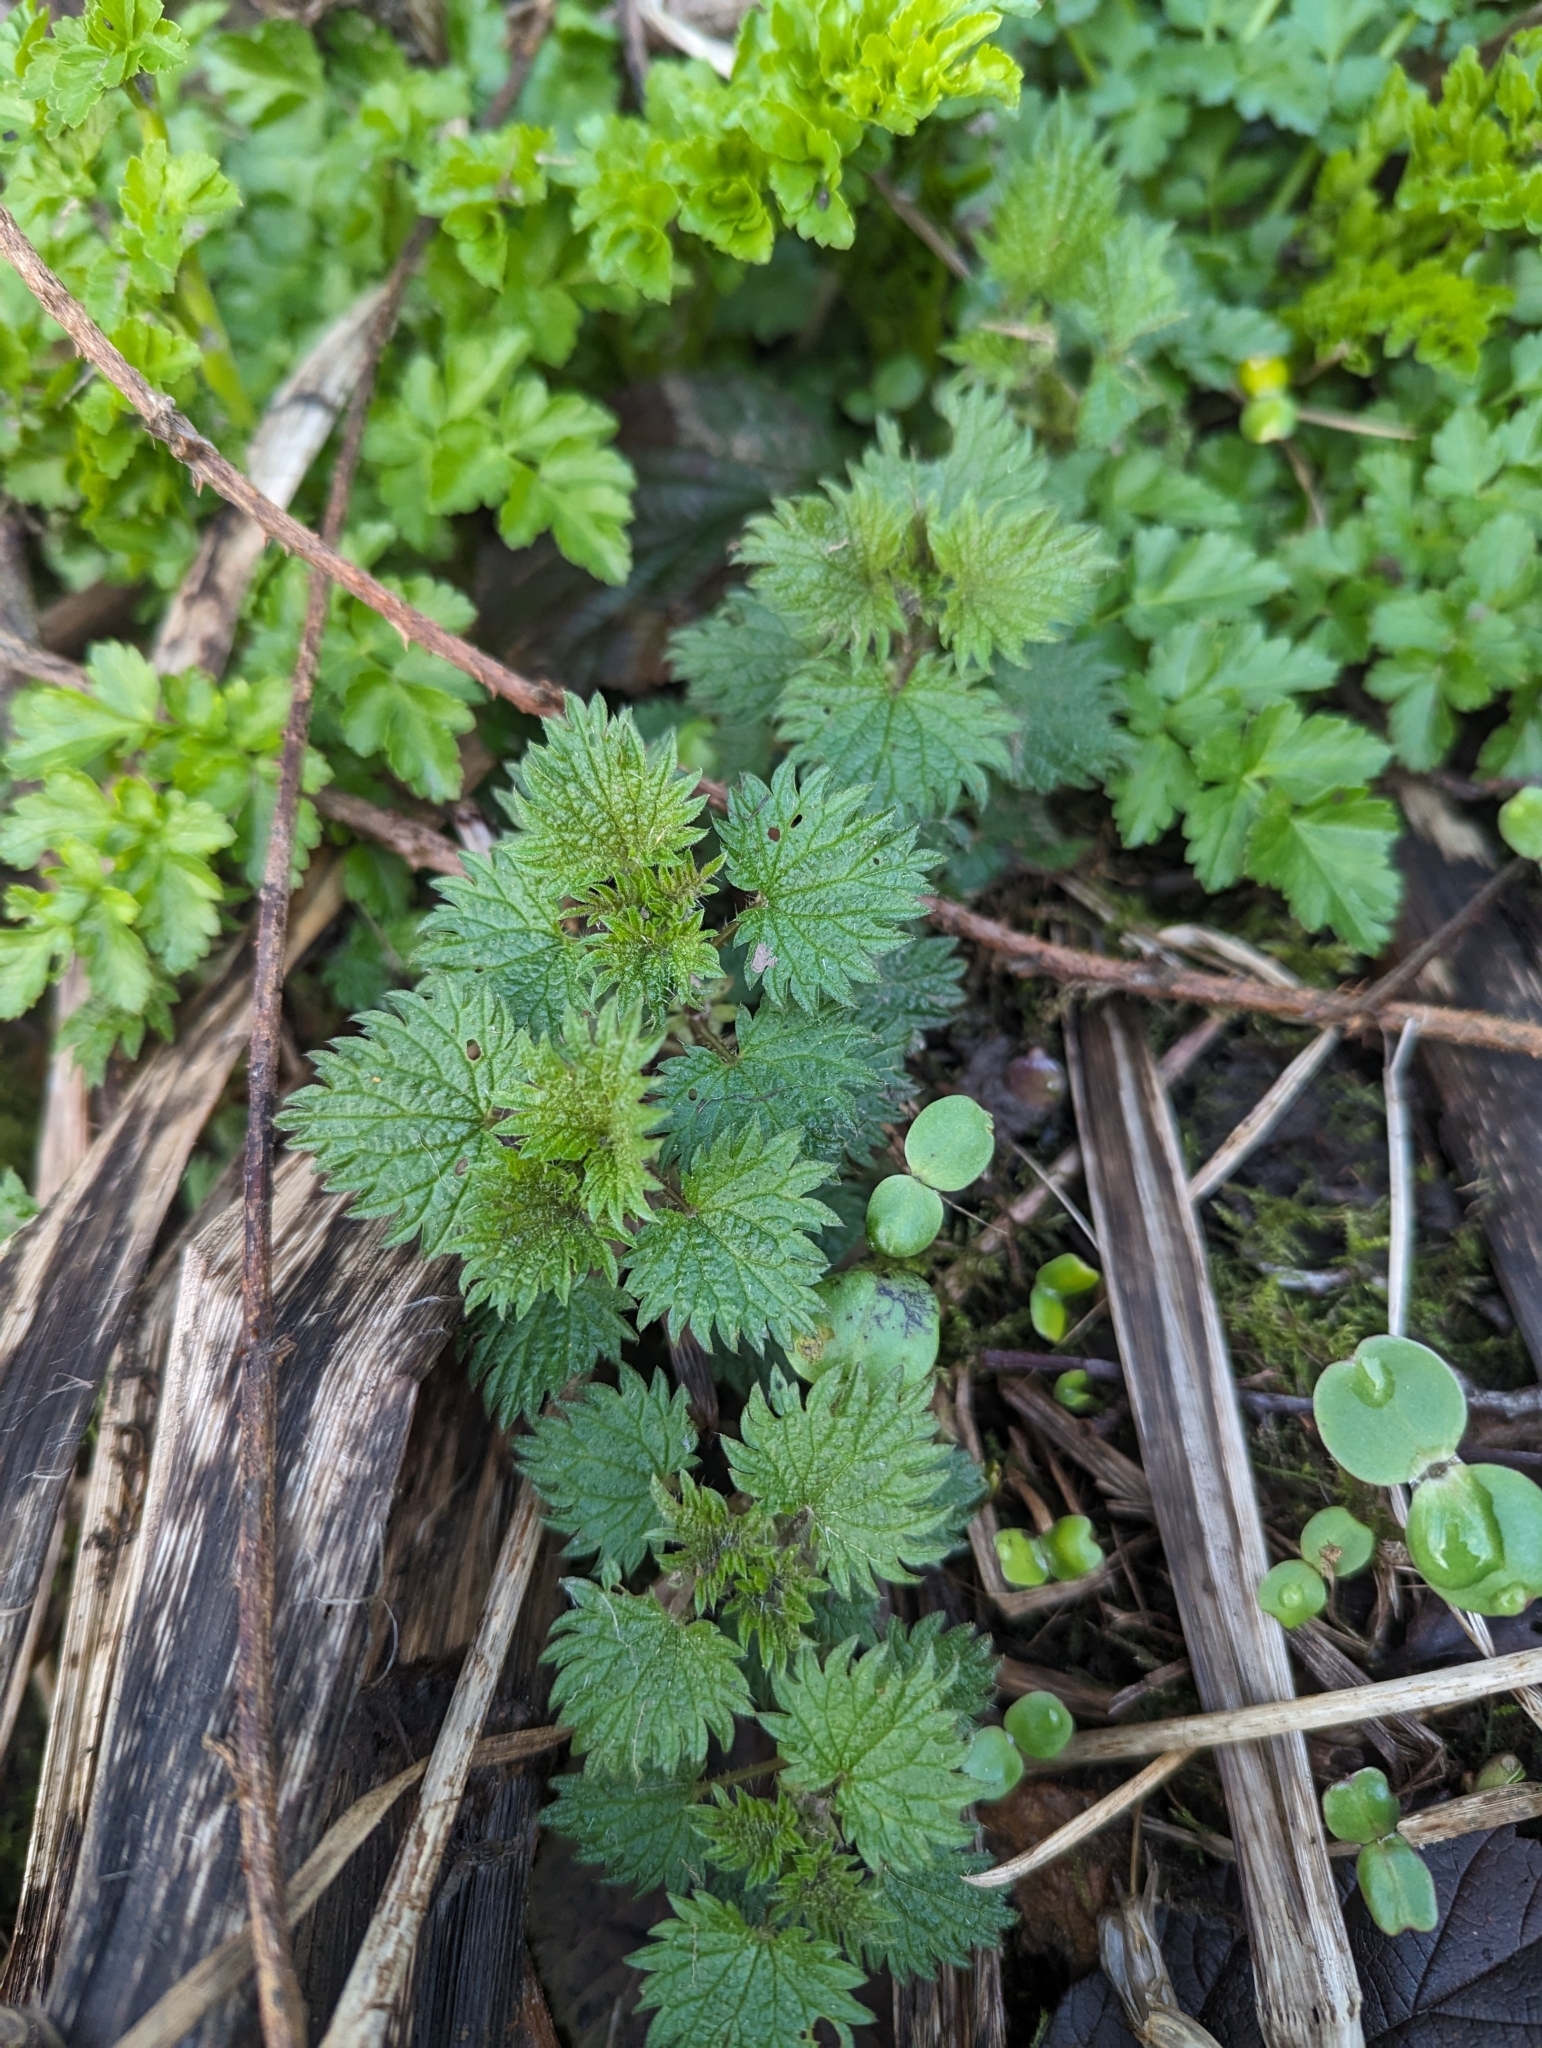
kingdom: Plantae
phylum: Tracheophyta
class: Magnoliopsida
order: Rosales
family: Urticaceae
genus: Urtica
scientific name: Urtica dioica
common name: Common nettle
